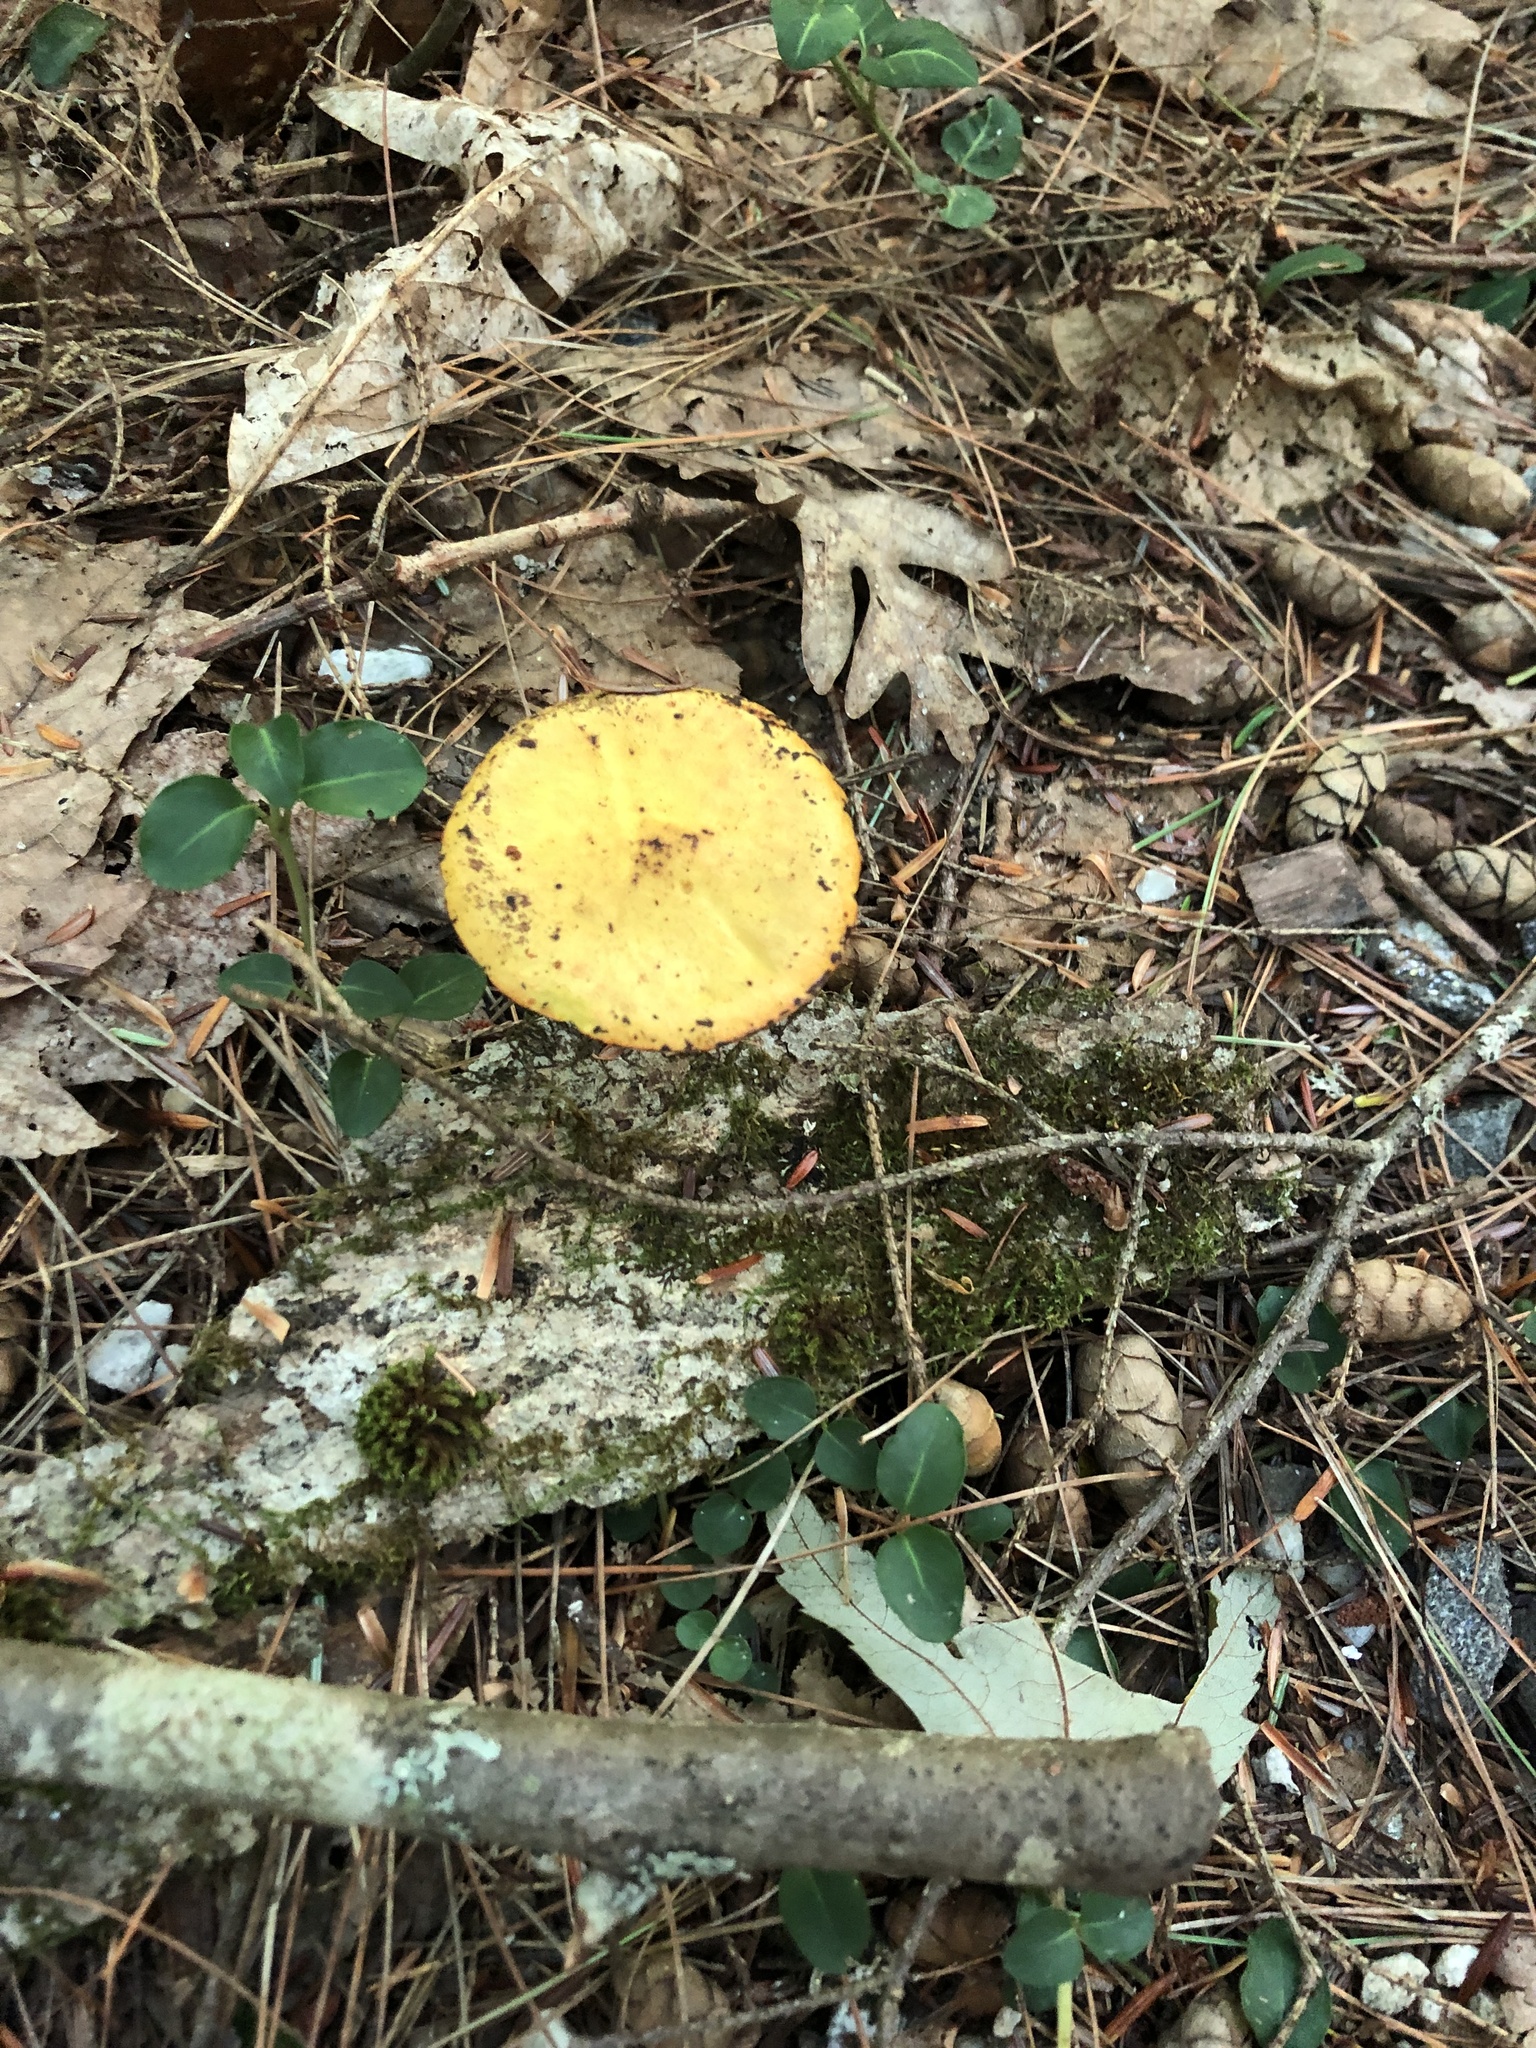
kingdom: Fungi
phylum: Basidiomycota
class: Agaricomycetes
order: Boletales
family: Suillaceae
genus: Suillus
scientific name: Suillus americanus
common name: Chicken fat mushroom
